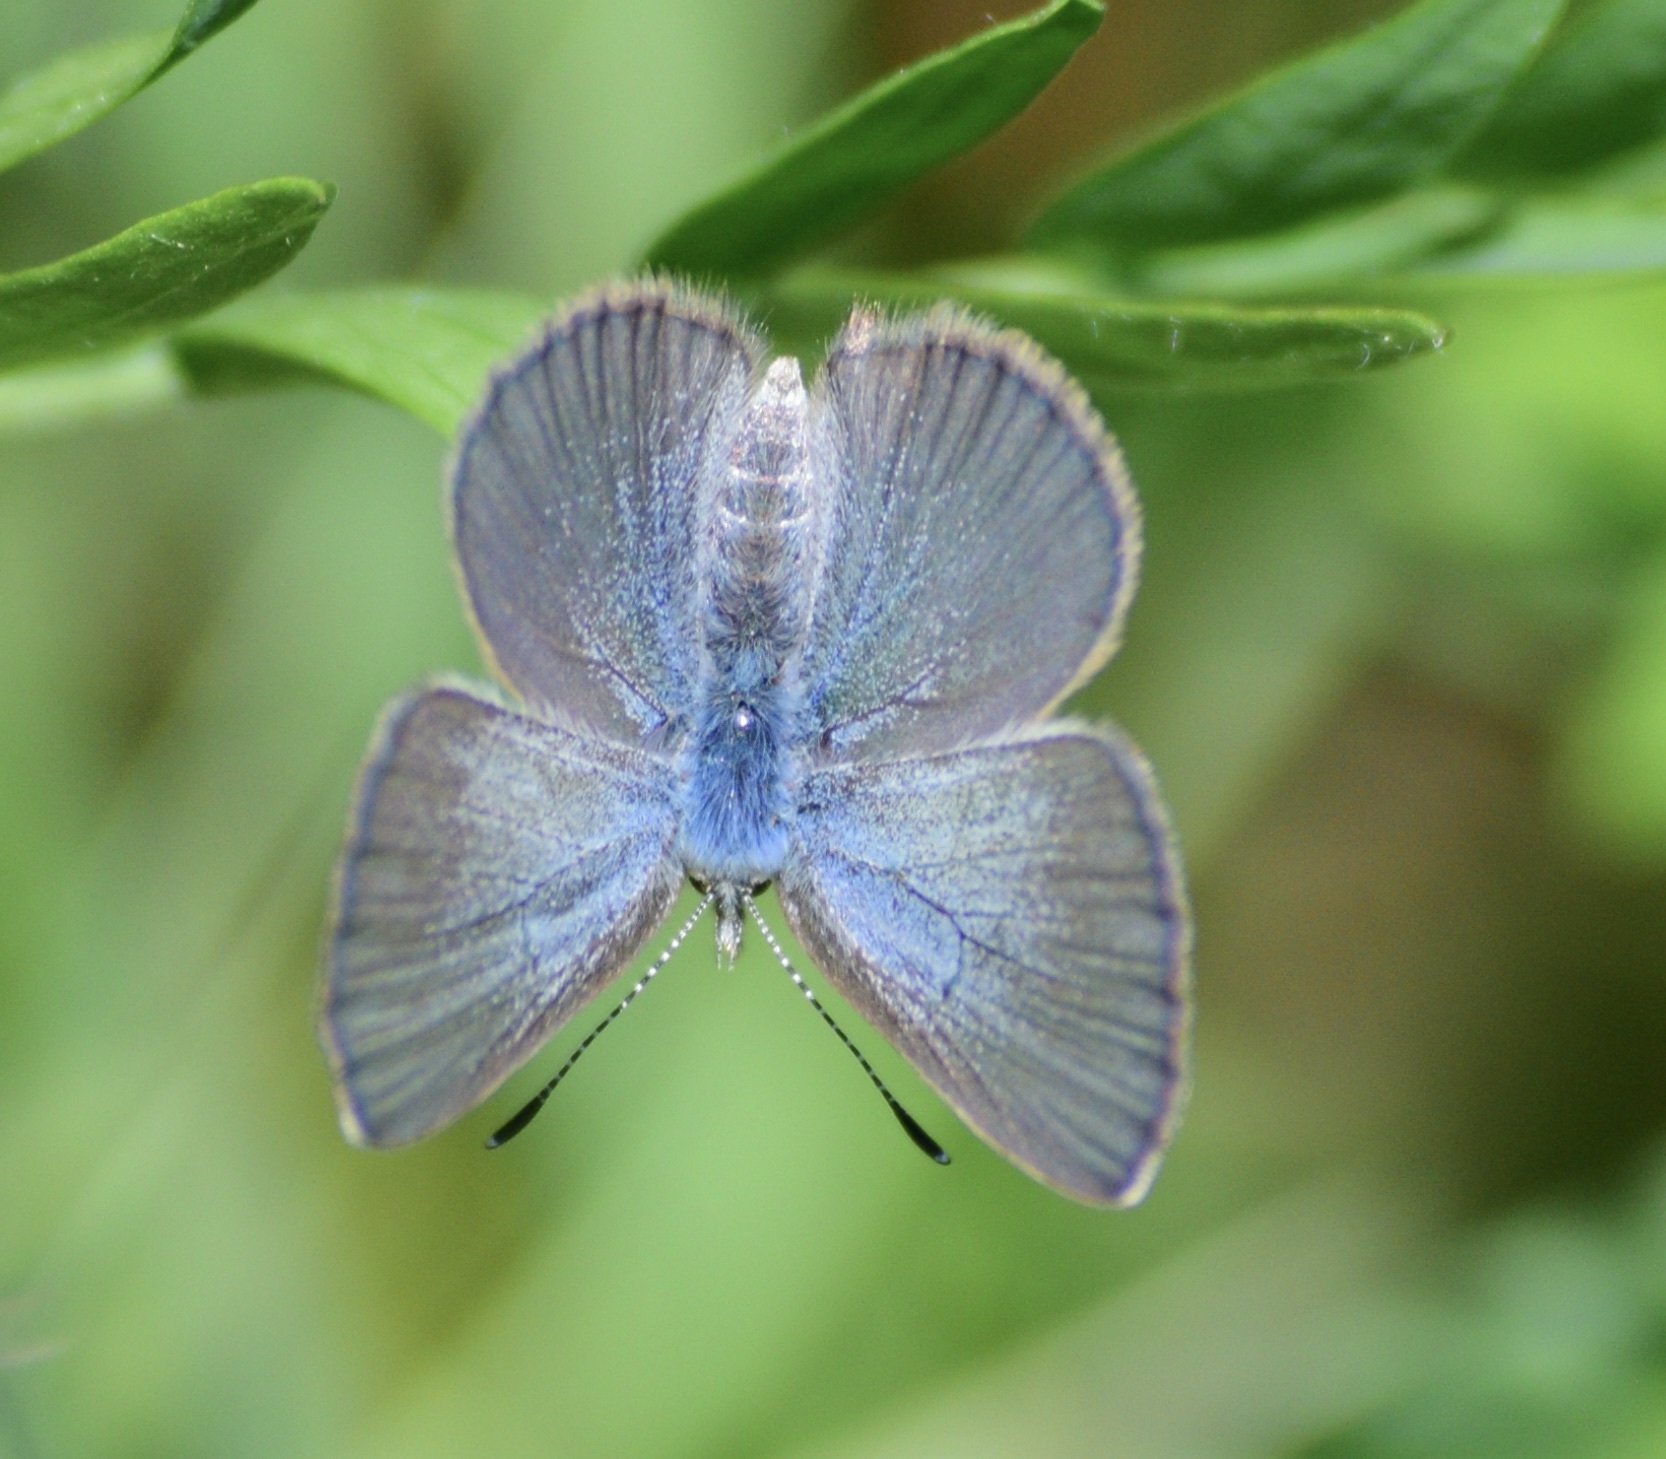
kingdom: Animalia
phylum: Arthropoda
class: Insecta
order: Lepidoptera
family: Lycaenidae
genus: Glaucopsyche
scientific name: Glaucopsyche lygdamus
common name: Silvery blue
